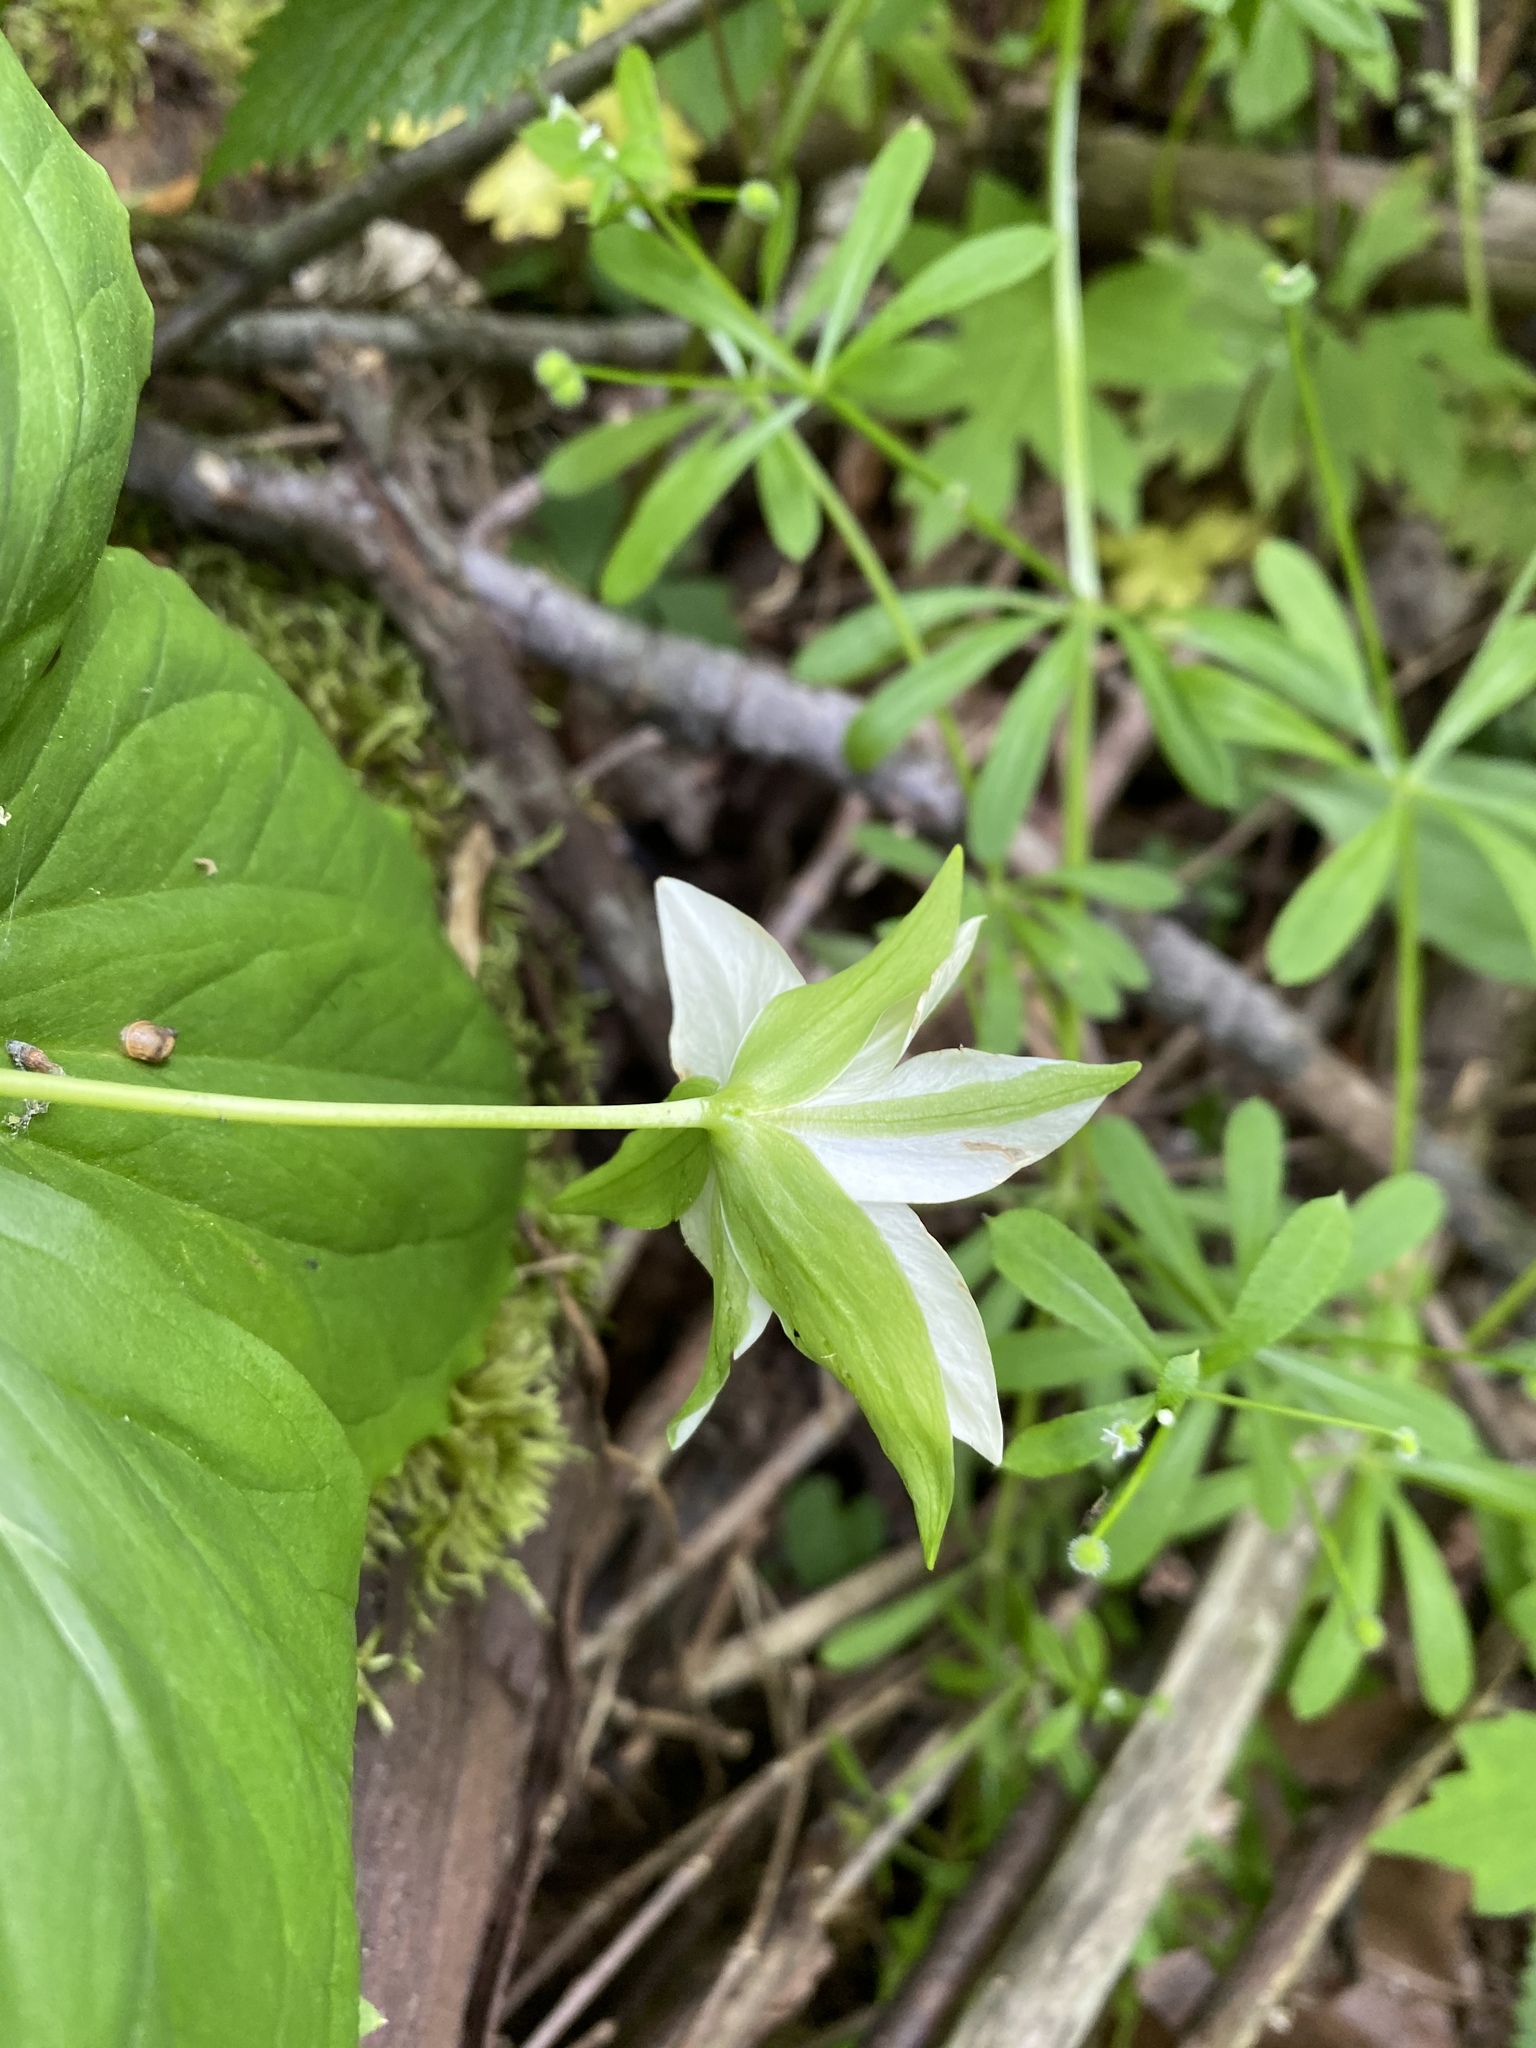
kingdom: Plantae
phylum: Tracheophyta
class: Liliopsida
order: Liliales
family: Melanthiaceae
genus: Trillium
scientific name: Trillium erectum
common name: Purple trillium
